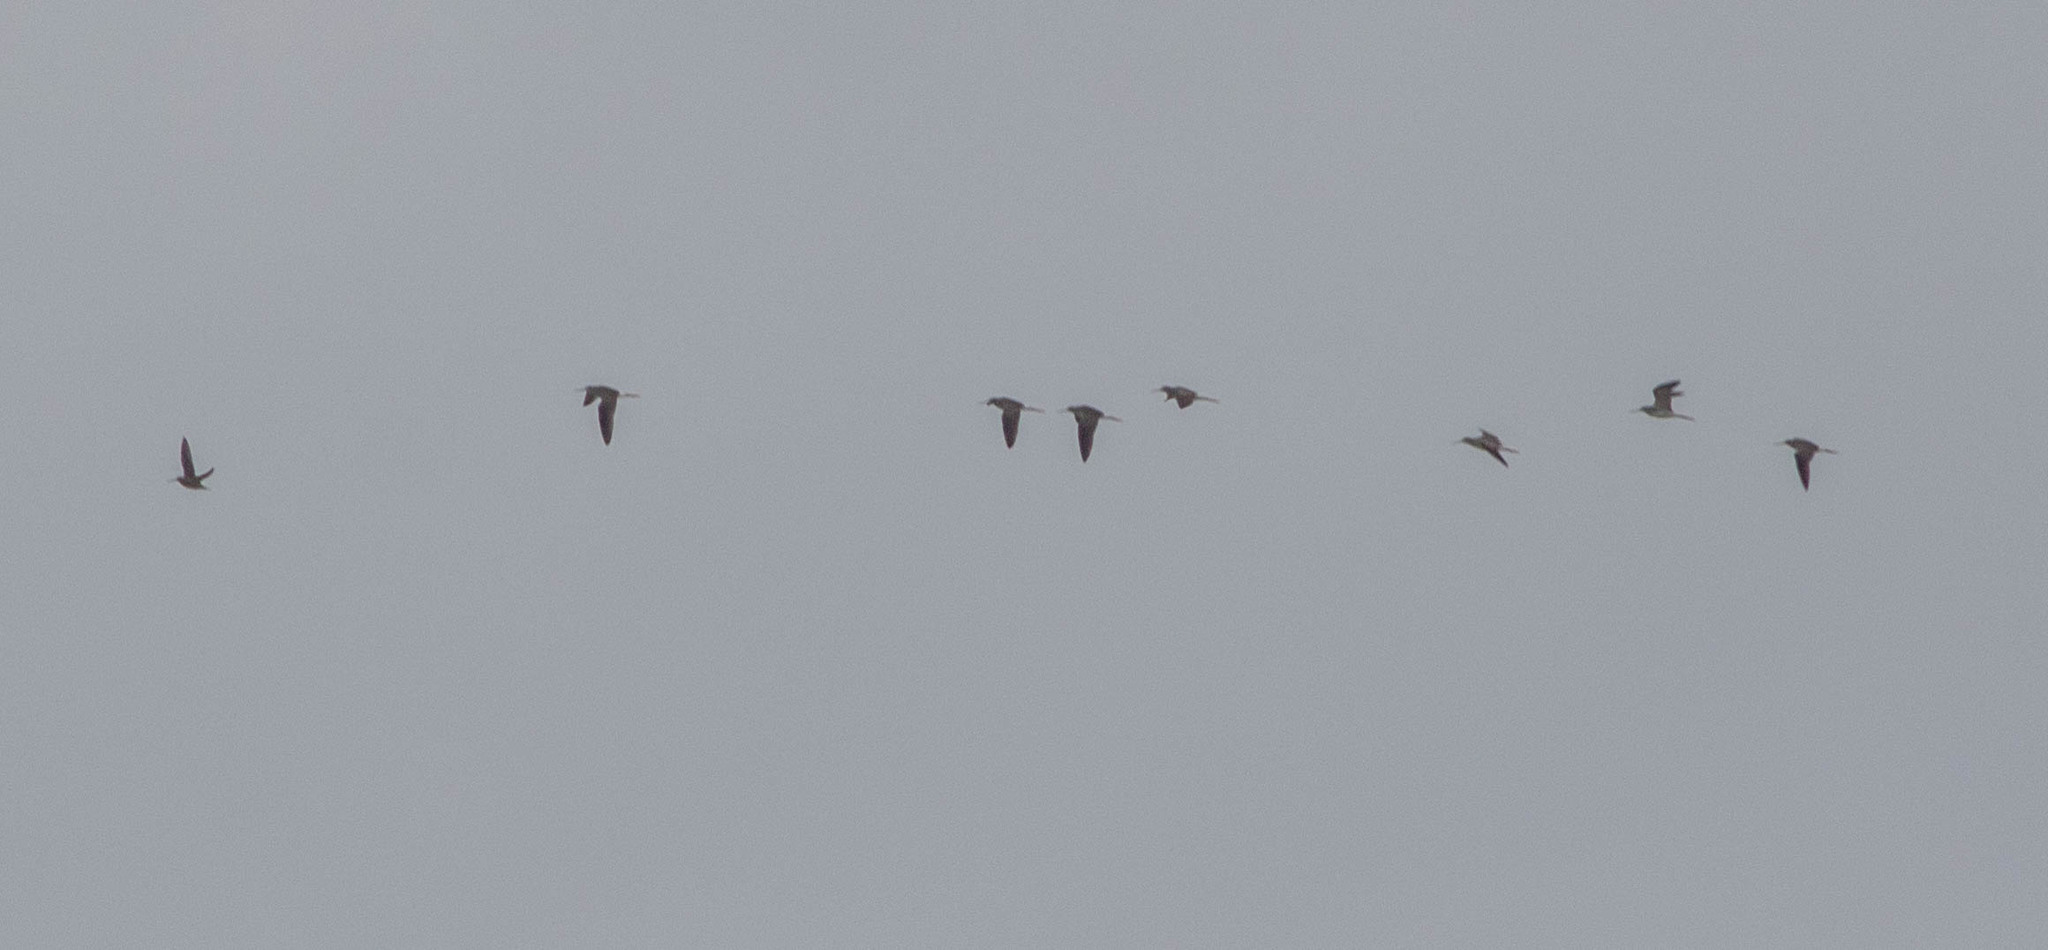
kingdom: Animalia
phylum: Chordata
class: Aves
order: Charadriiformes
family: Scolopacidae
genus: Tringa
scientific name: Tringa melanoleuca
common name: Greater yellowlegs
